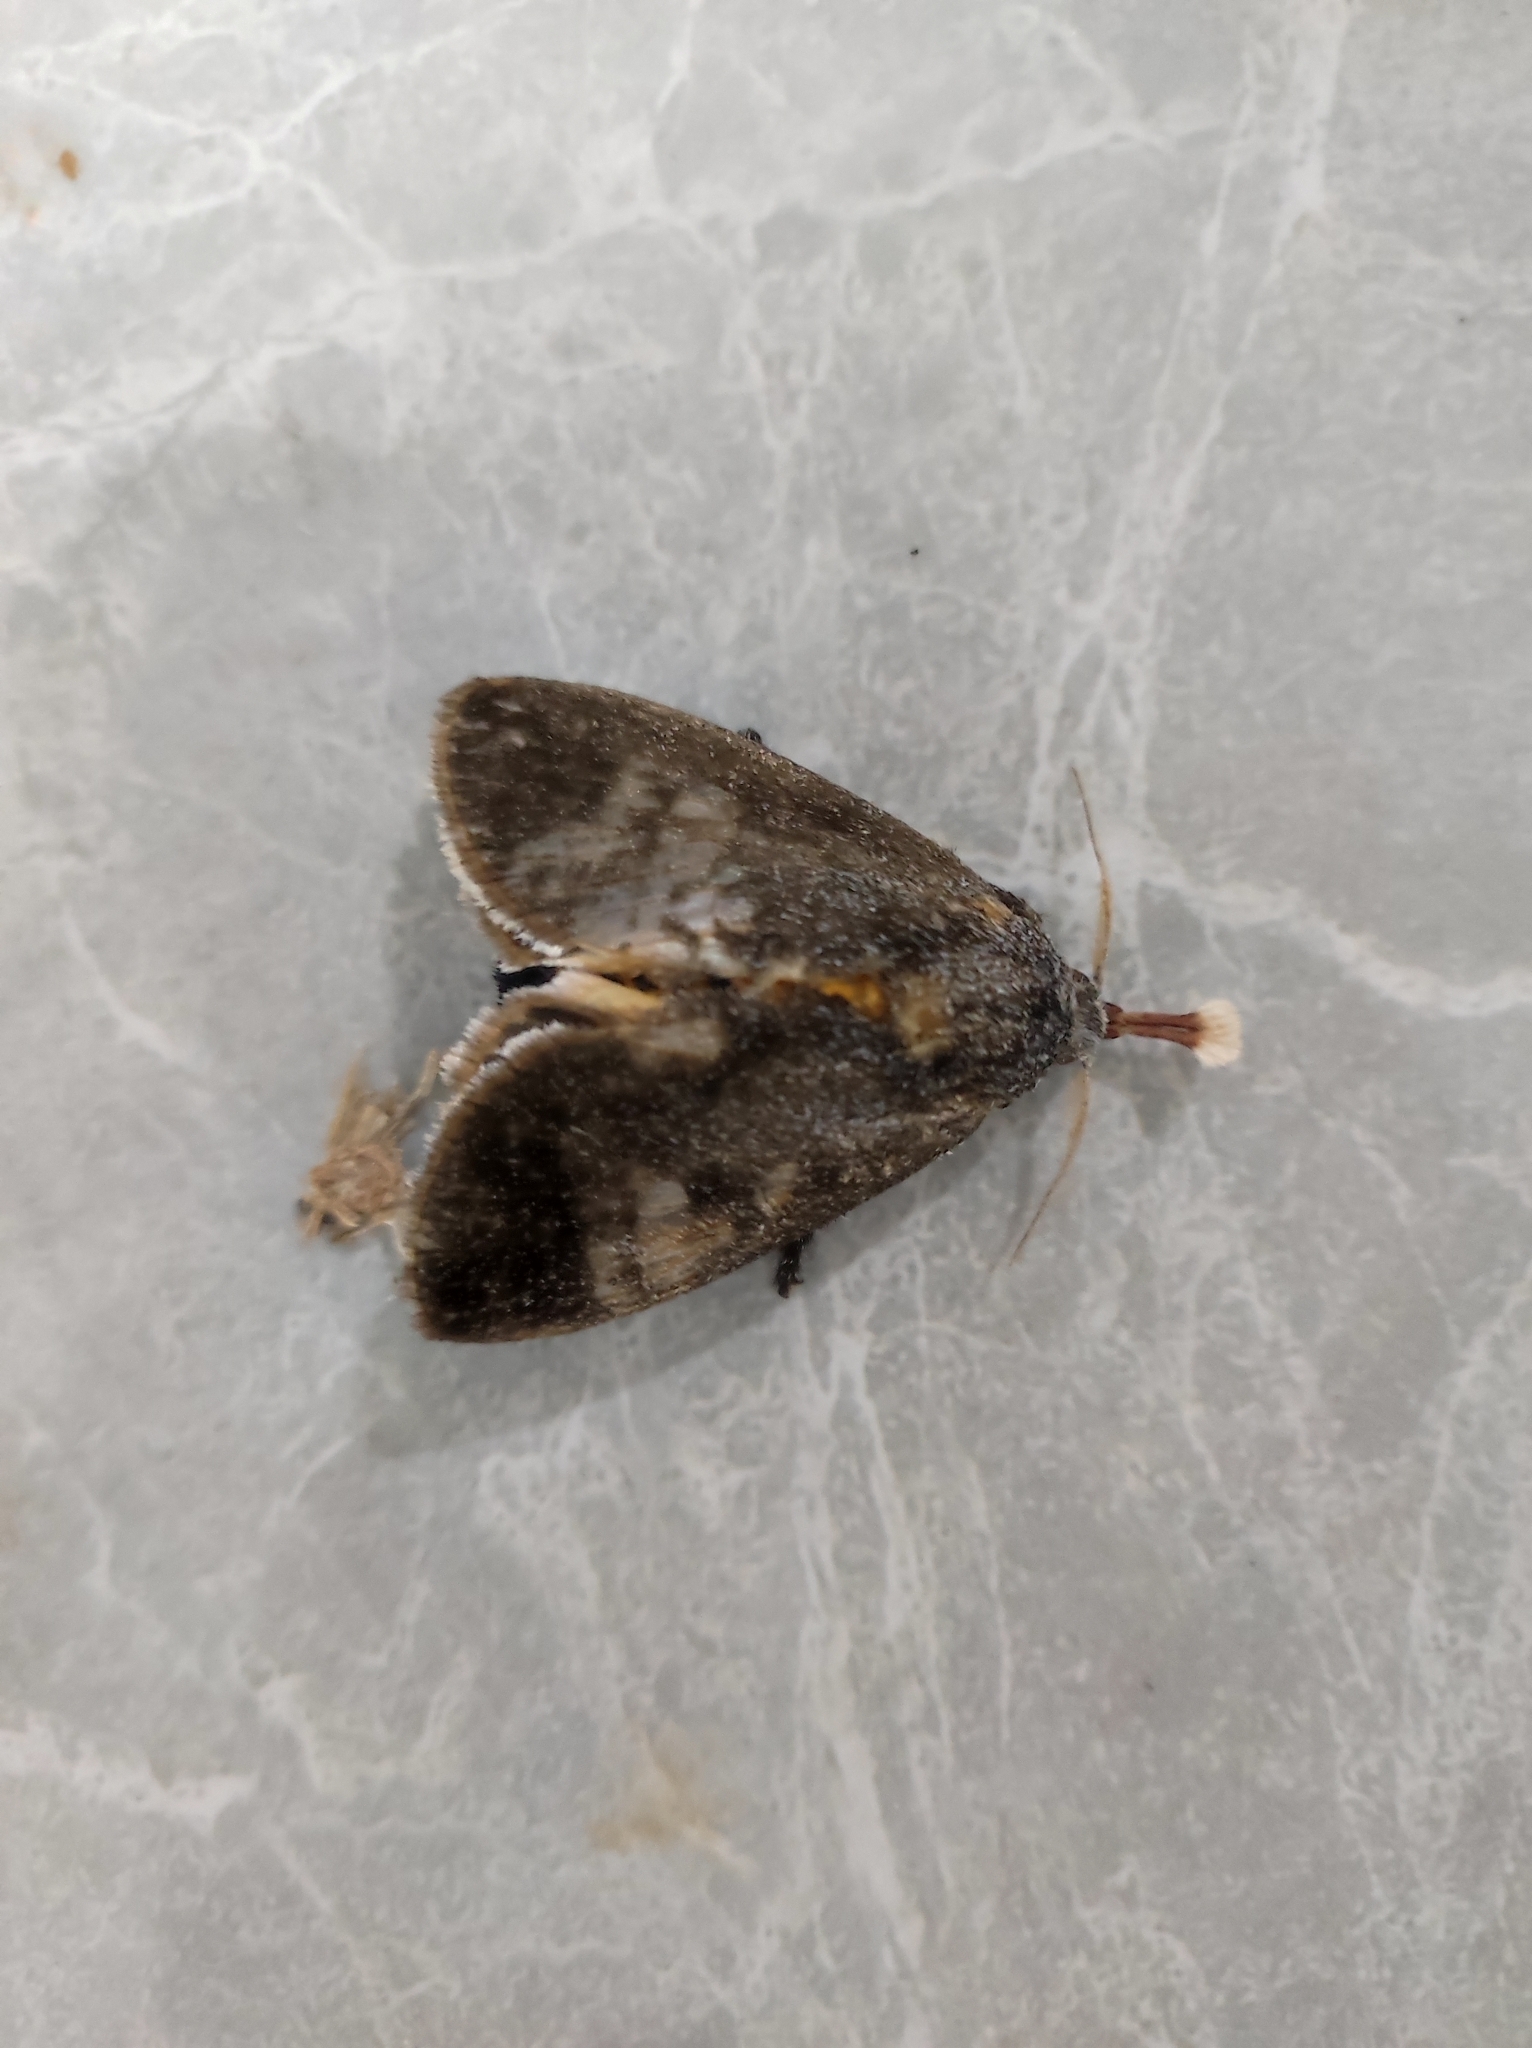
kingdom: Animalia
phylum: Arthropoda
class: Insecta
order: Lepidoptera
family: Limacodidae
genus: Scopelodes
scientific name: Scopelodes kwangtungensis
